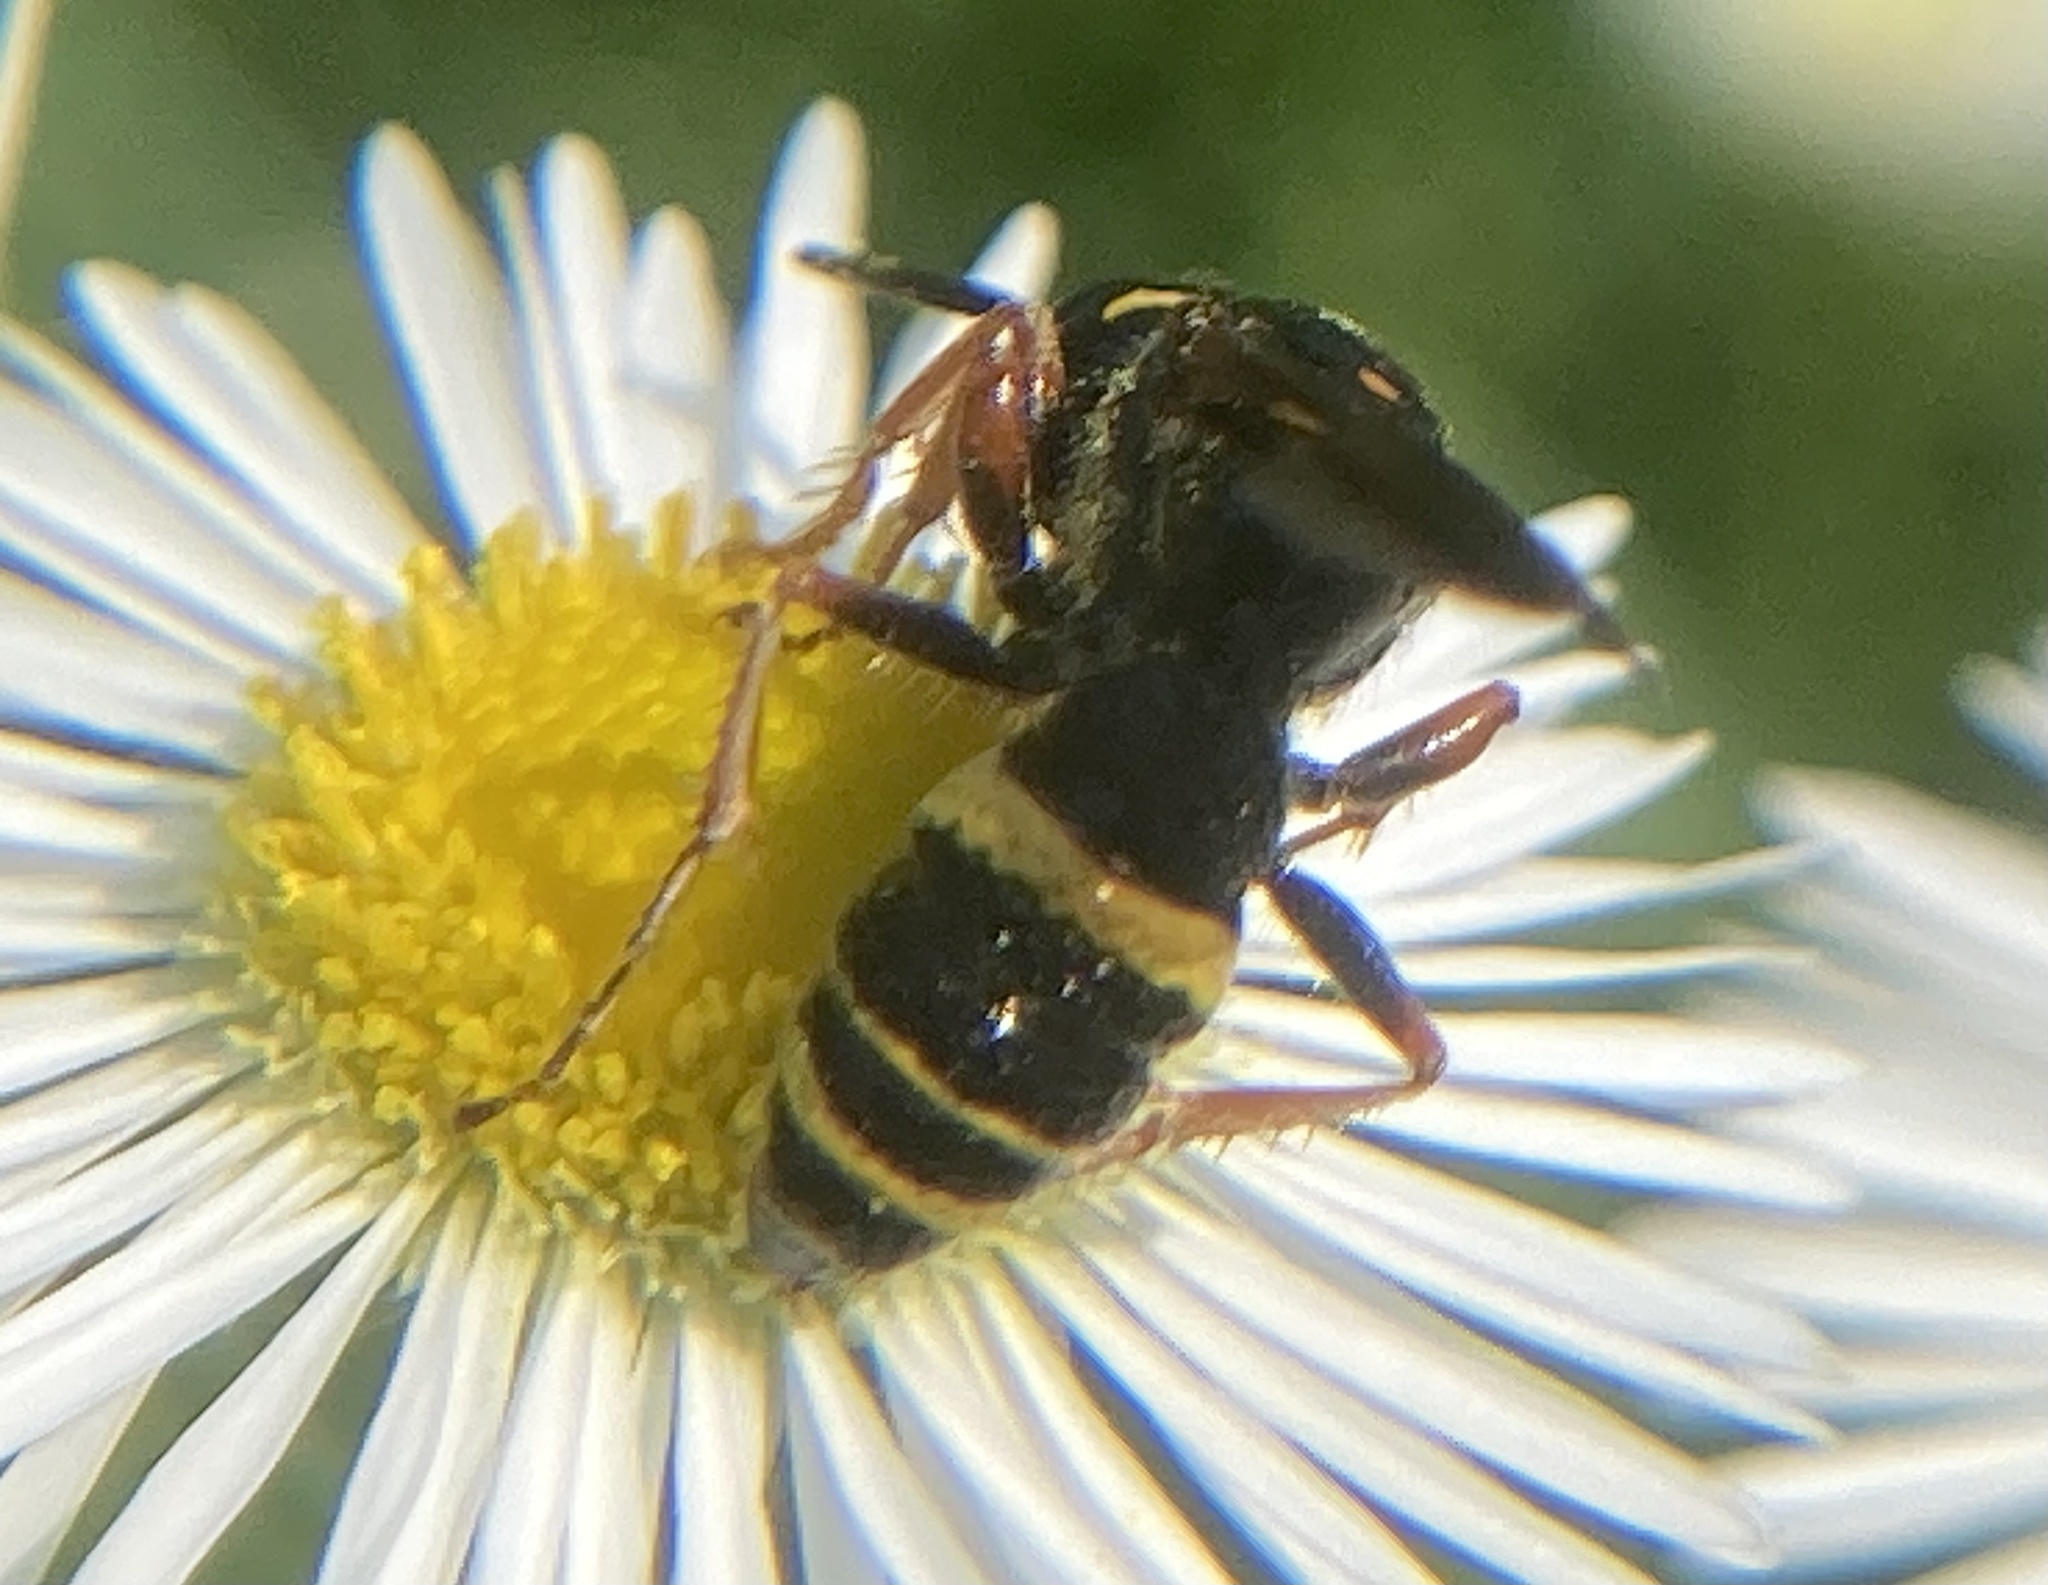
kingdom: Animalia
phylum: Arthropoda
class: Insecta
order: Hymenoptera
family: Crabronidae
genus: Philanthus
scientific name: Philanthus gibbosus
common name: Humped beewolf
